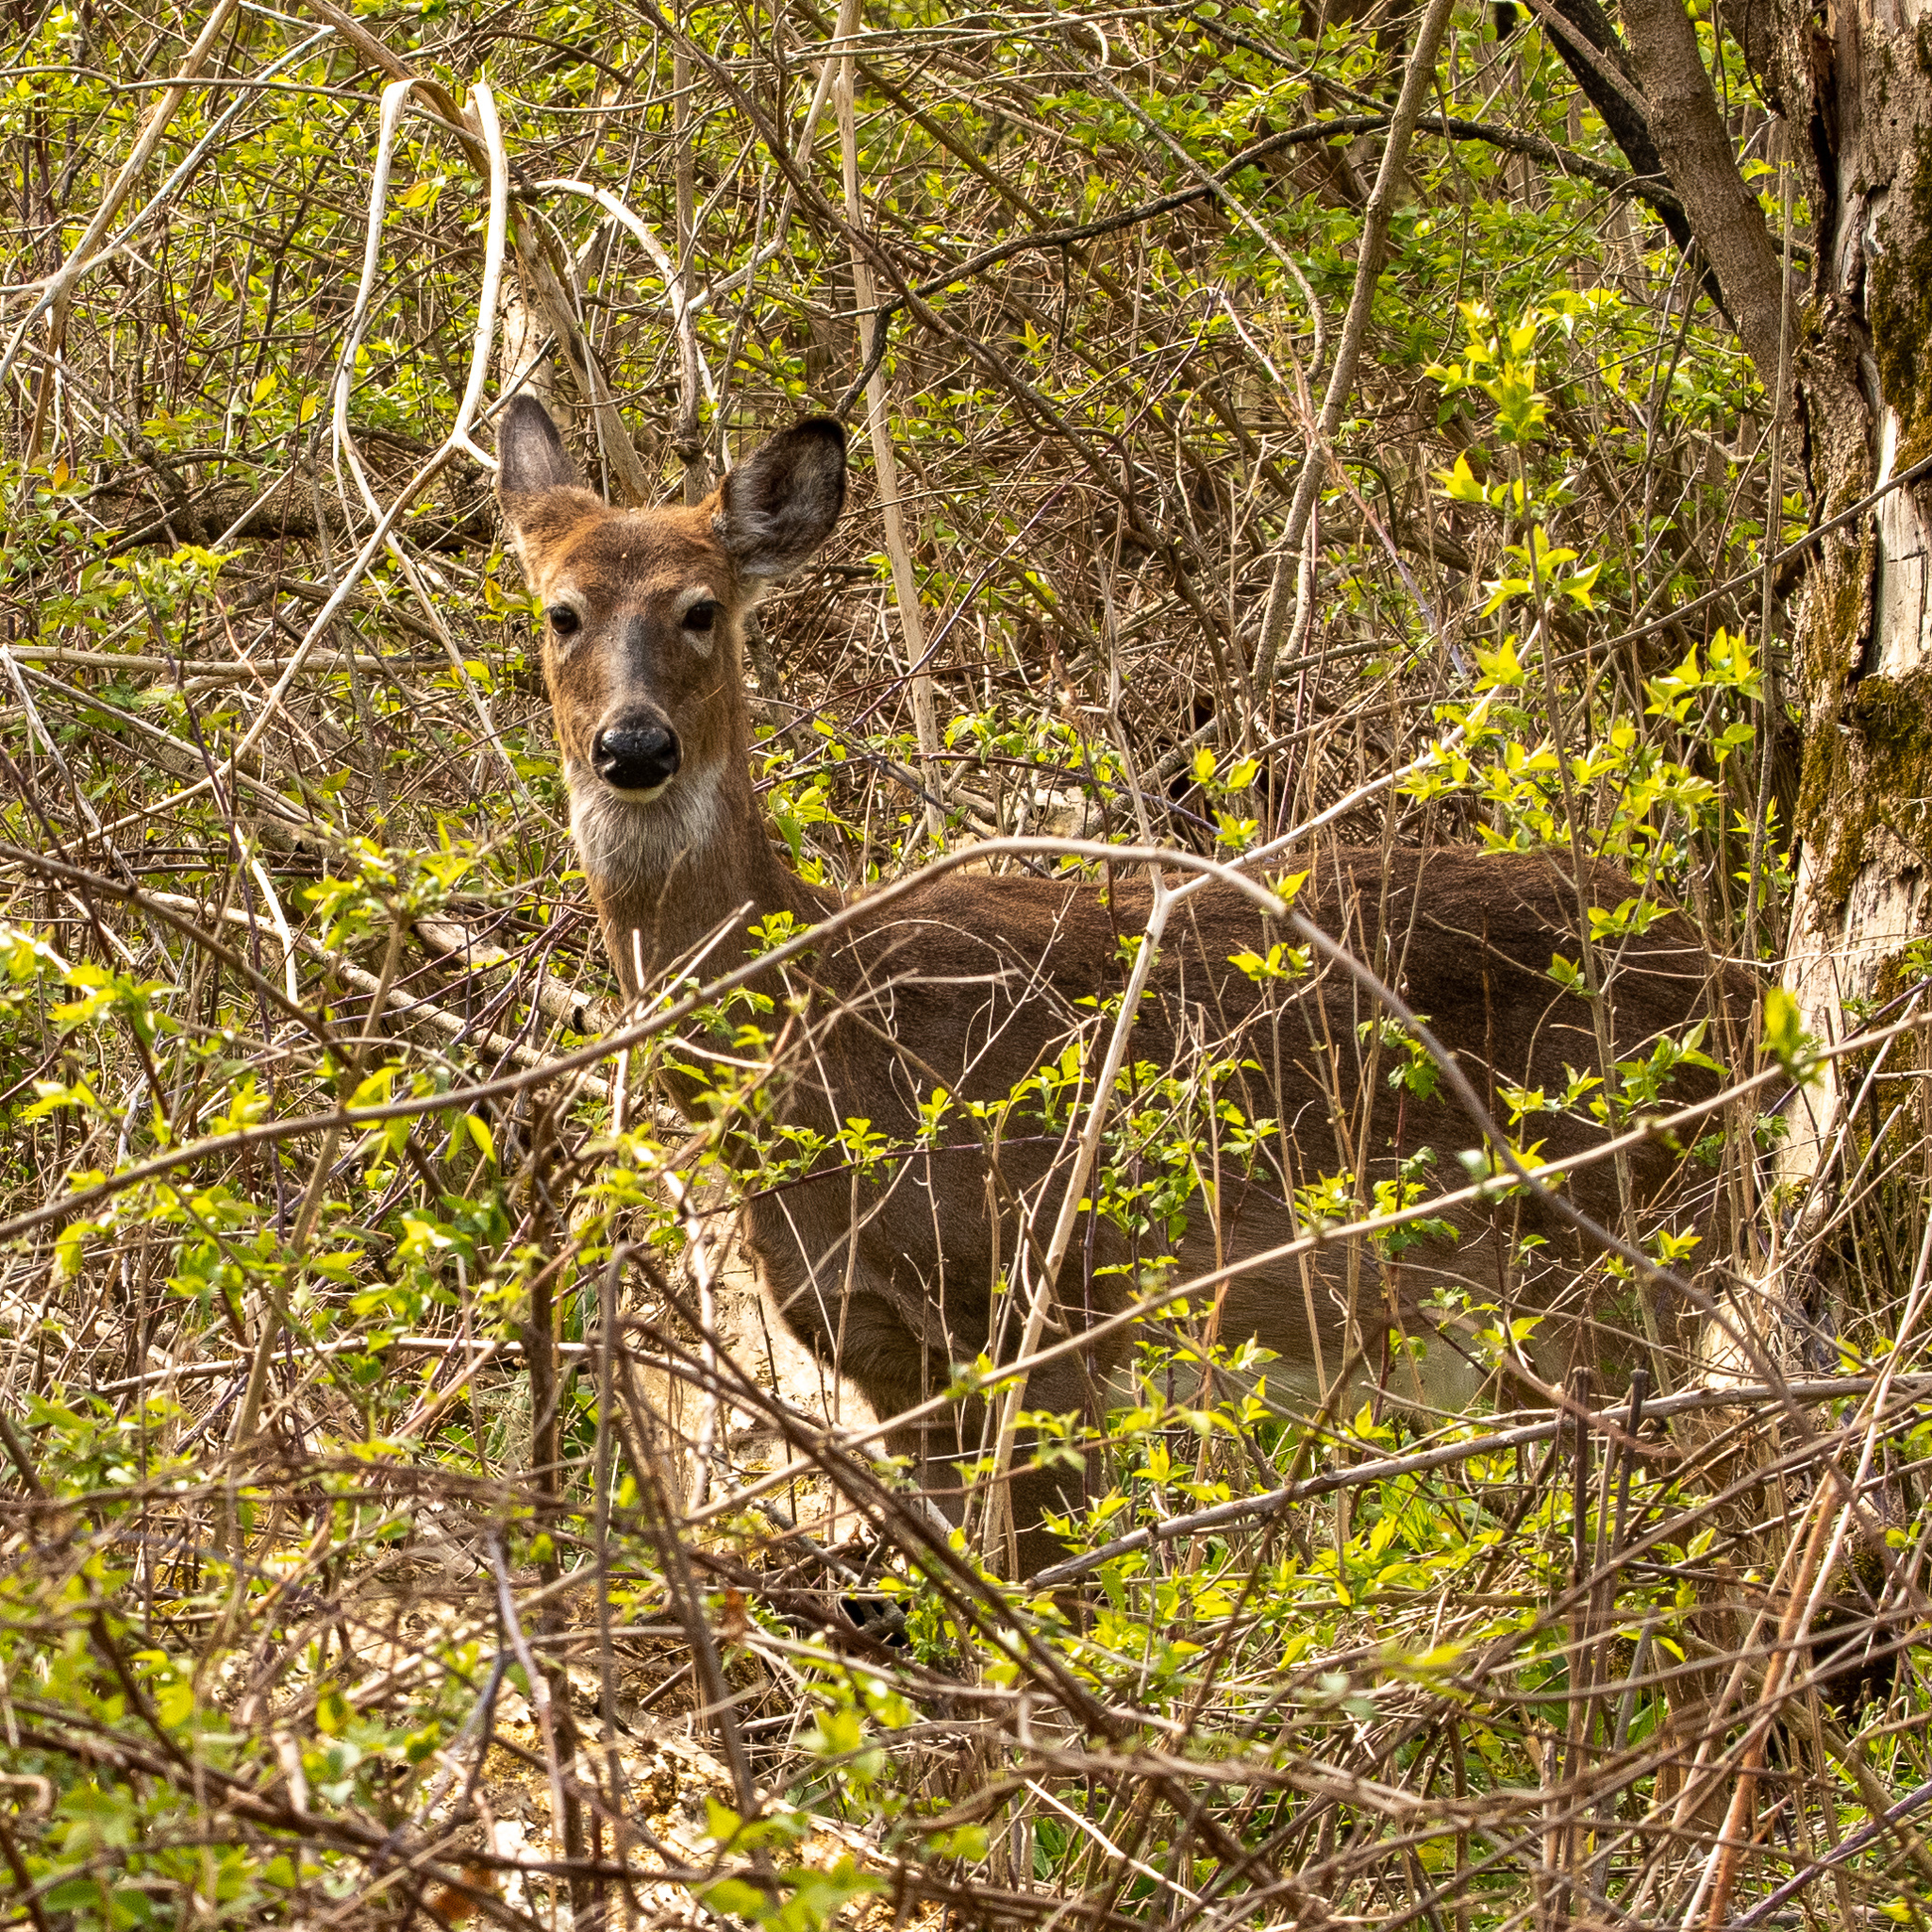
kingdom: Animalia
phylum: Chordata
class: Mammalia
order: Artiodactyla
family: Cervidae
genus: Odocoileus
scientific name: Odocoileus virginianus
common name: White-tailed deer
